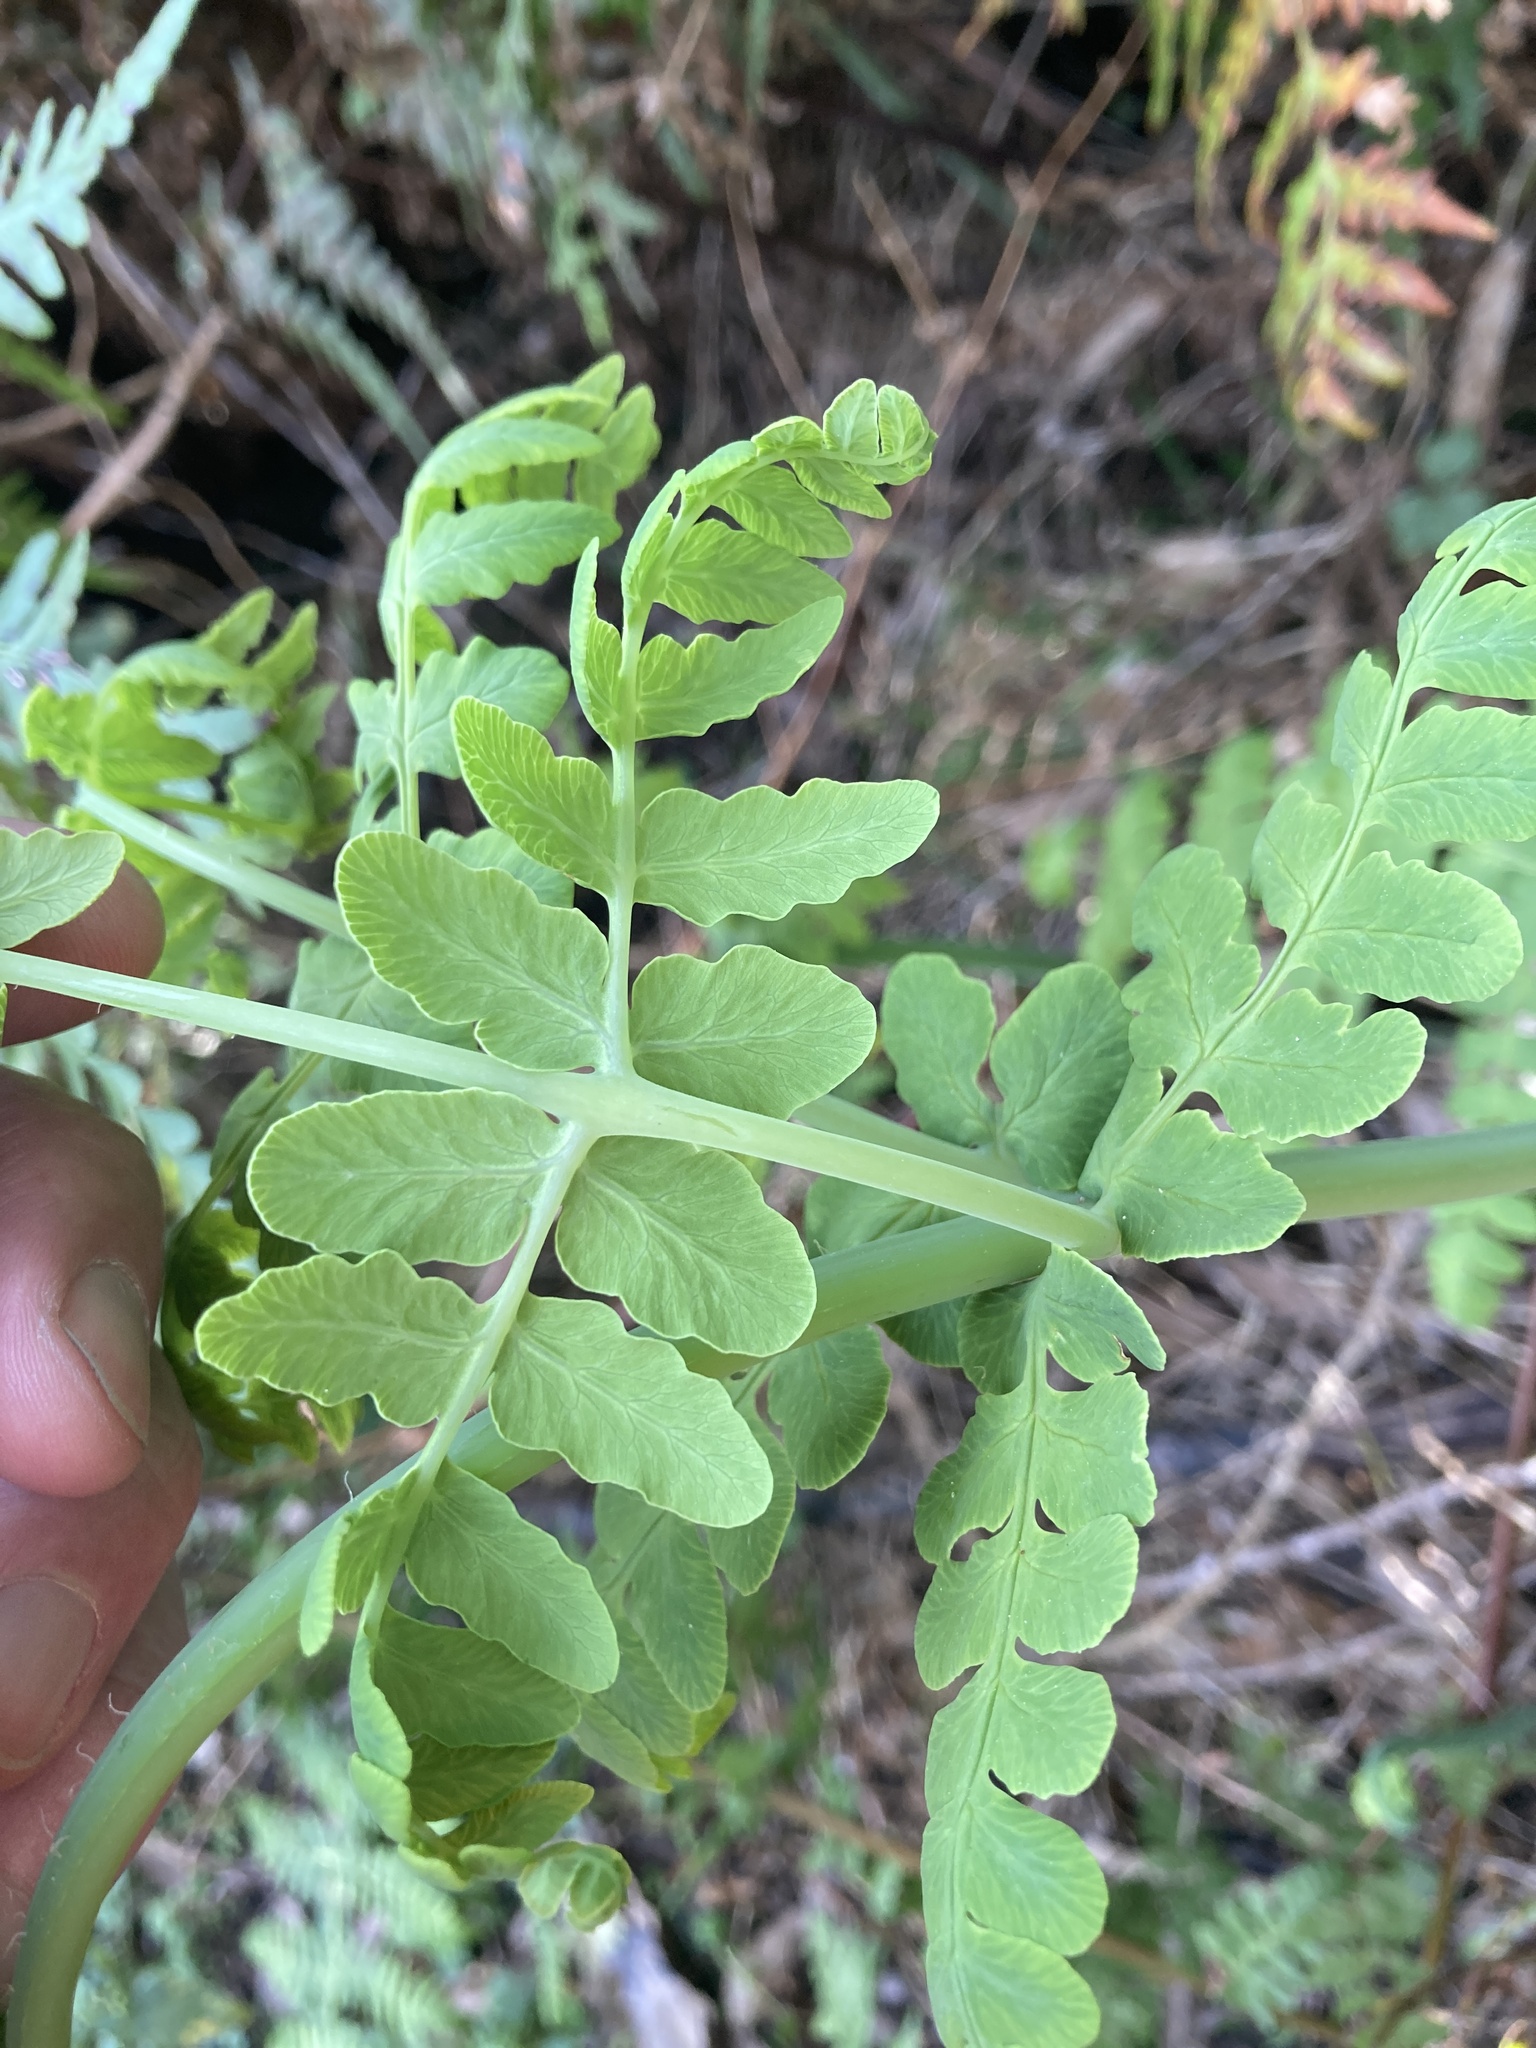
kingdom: Plantae
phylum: Tracheophyta
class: Polypodiopsida
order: Polypodiales
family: Dennstaedtiaceae
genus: Histiopteris
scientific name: Histiopteris incisa
